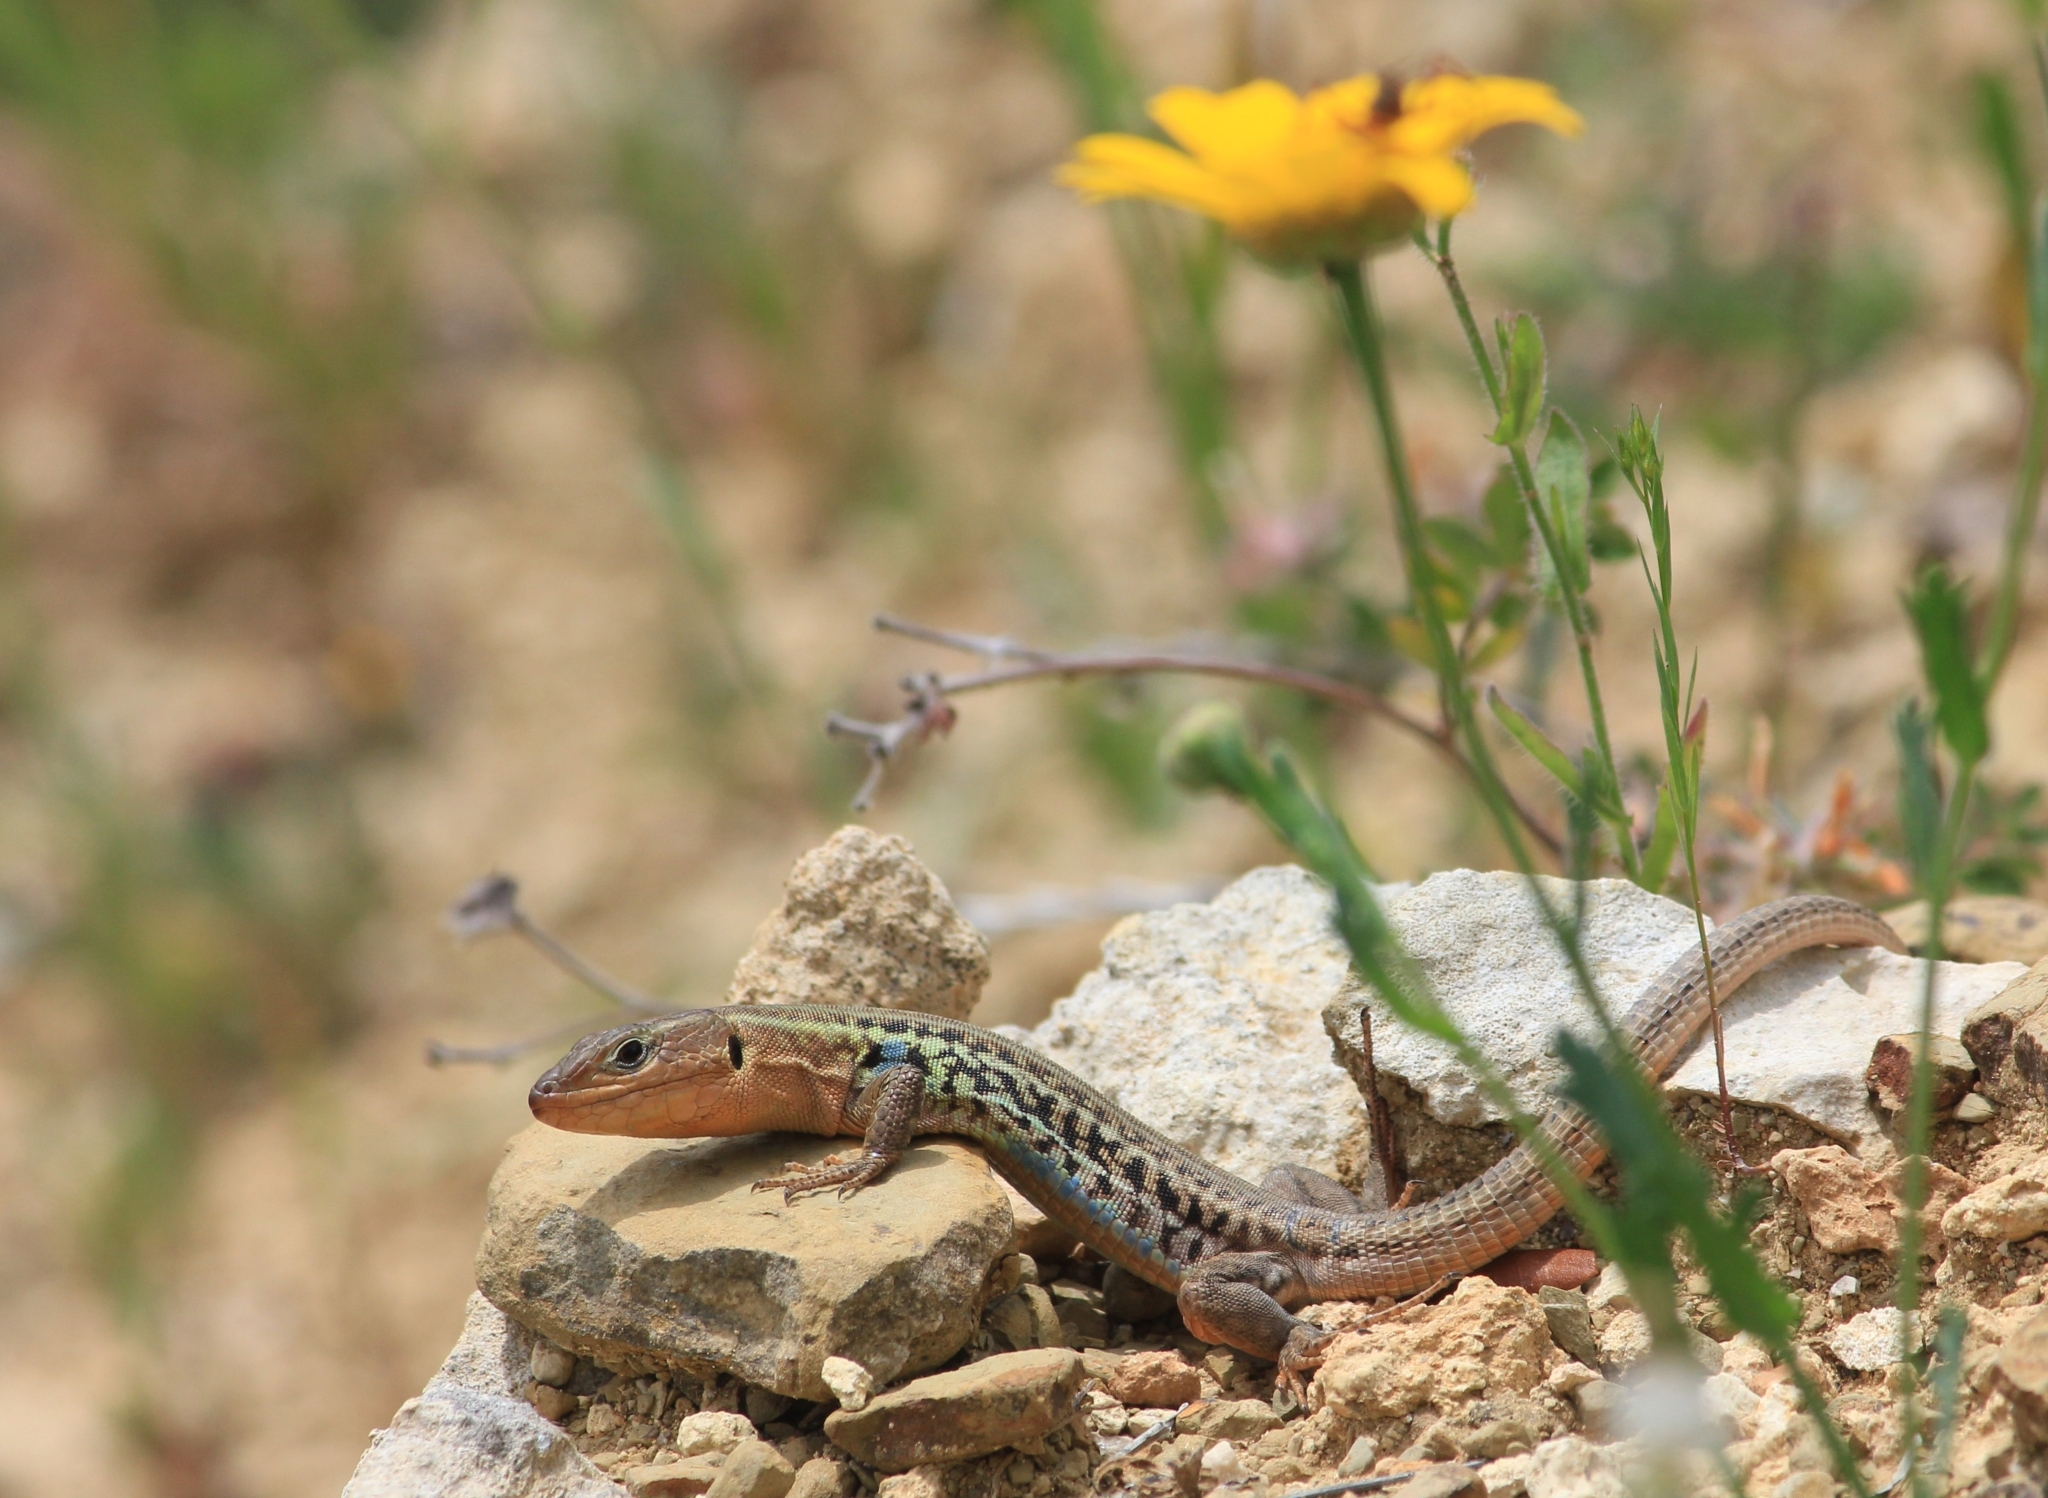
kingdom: Animalia
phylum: Chordata
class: Squamata
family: Lacertidae
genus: Podarcis
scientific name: Podarcis peloponnesiacus
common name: Peloponnese wall lizard
